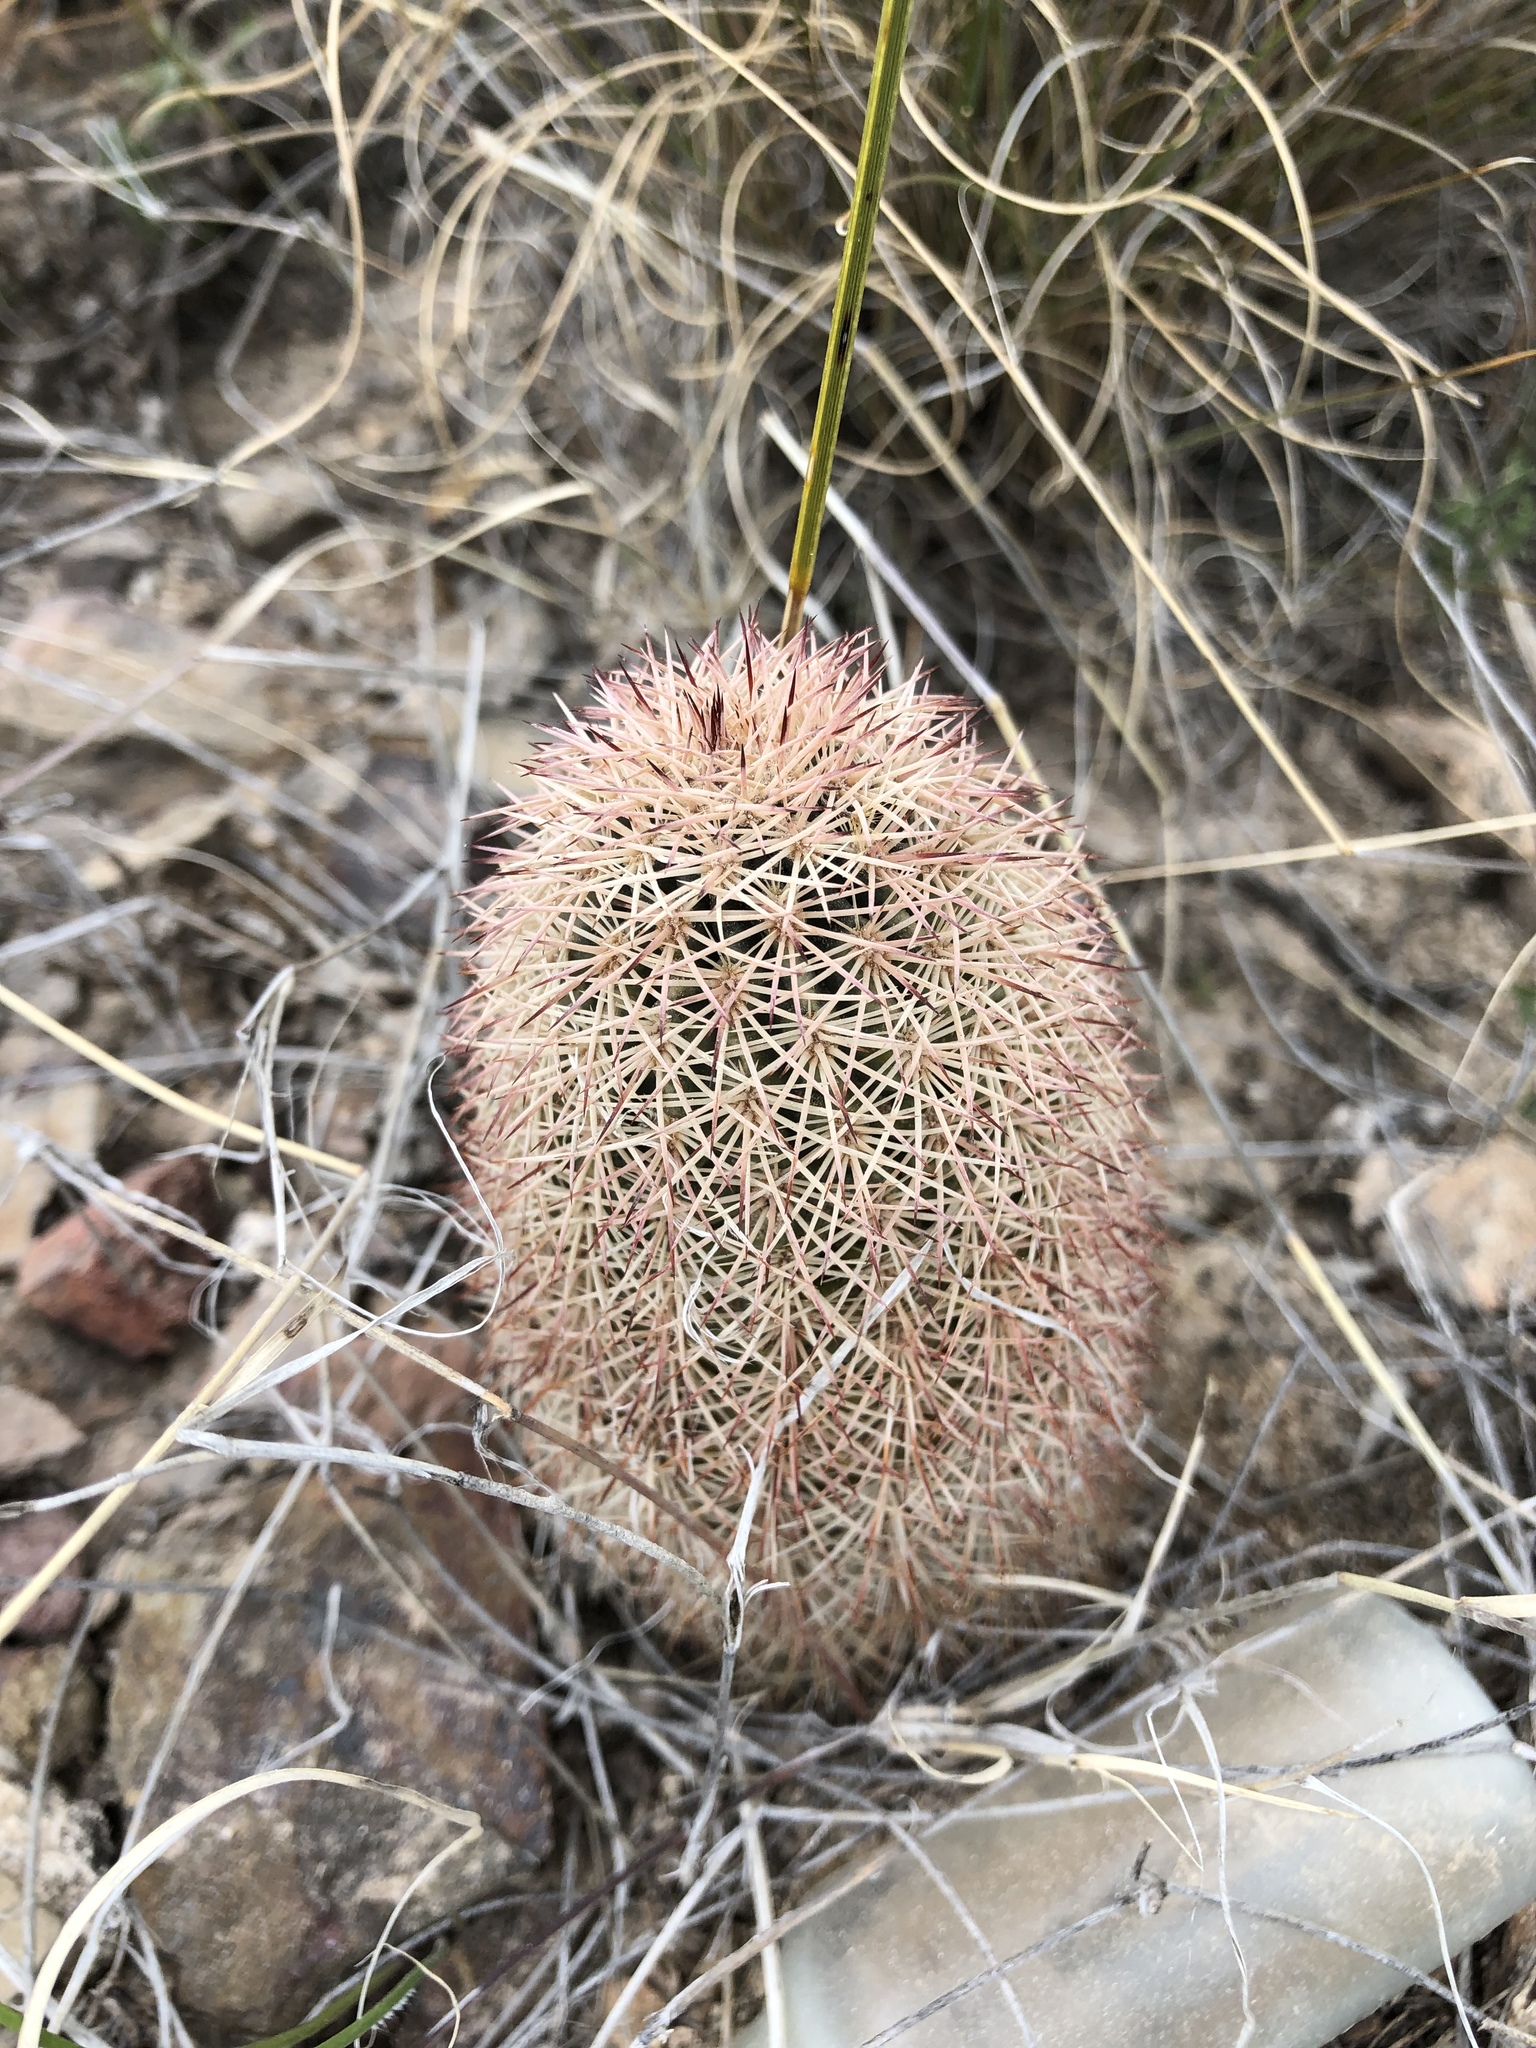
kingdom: Plantae
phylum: Tracheophyta
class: Magnoliopsida
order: Caryophyllales
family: Cactaceae
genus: Echinocereus
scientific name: Echinocereus dasyacanthus
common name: Spiny hedgehog cactus
